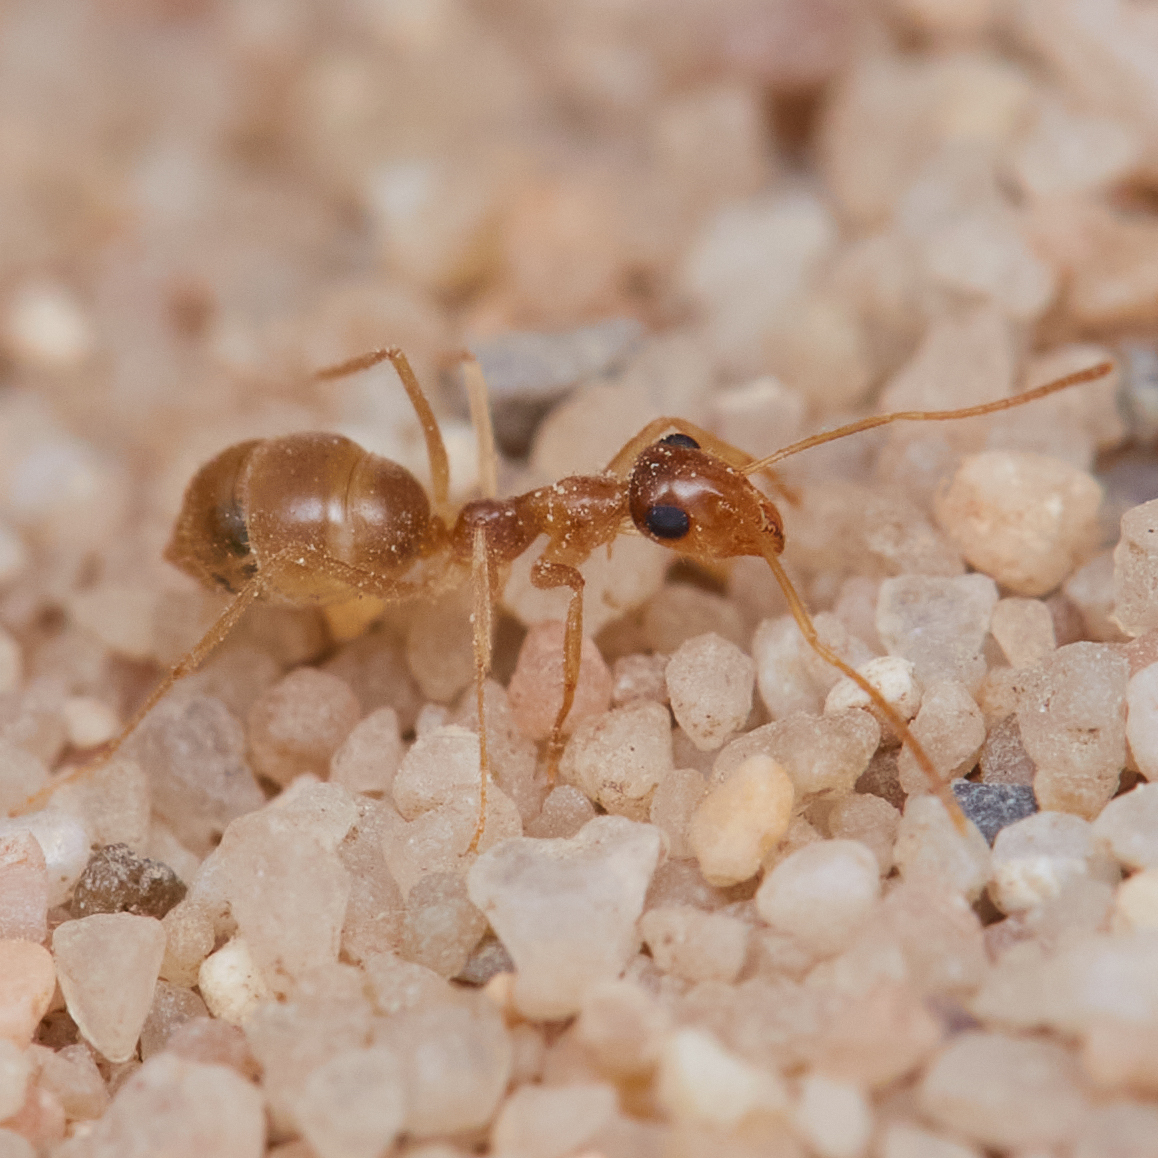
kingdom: Animalia
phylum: Arthropoda
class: Insecta
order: Hymenoptera
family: Formicidae
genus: Myrmecocystus
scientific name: Myrmecocystus testaceus
